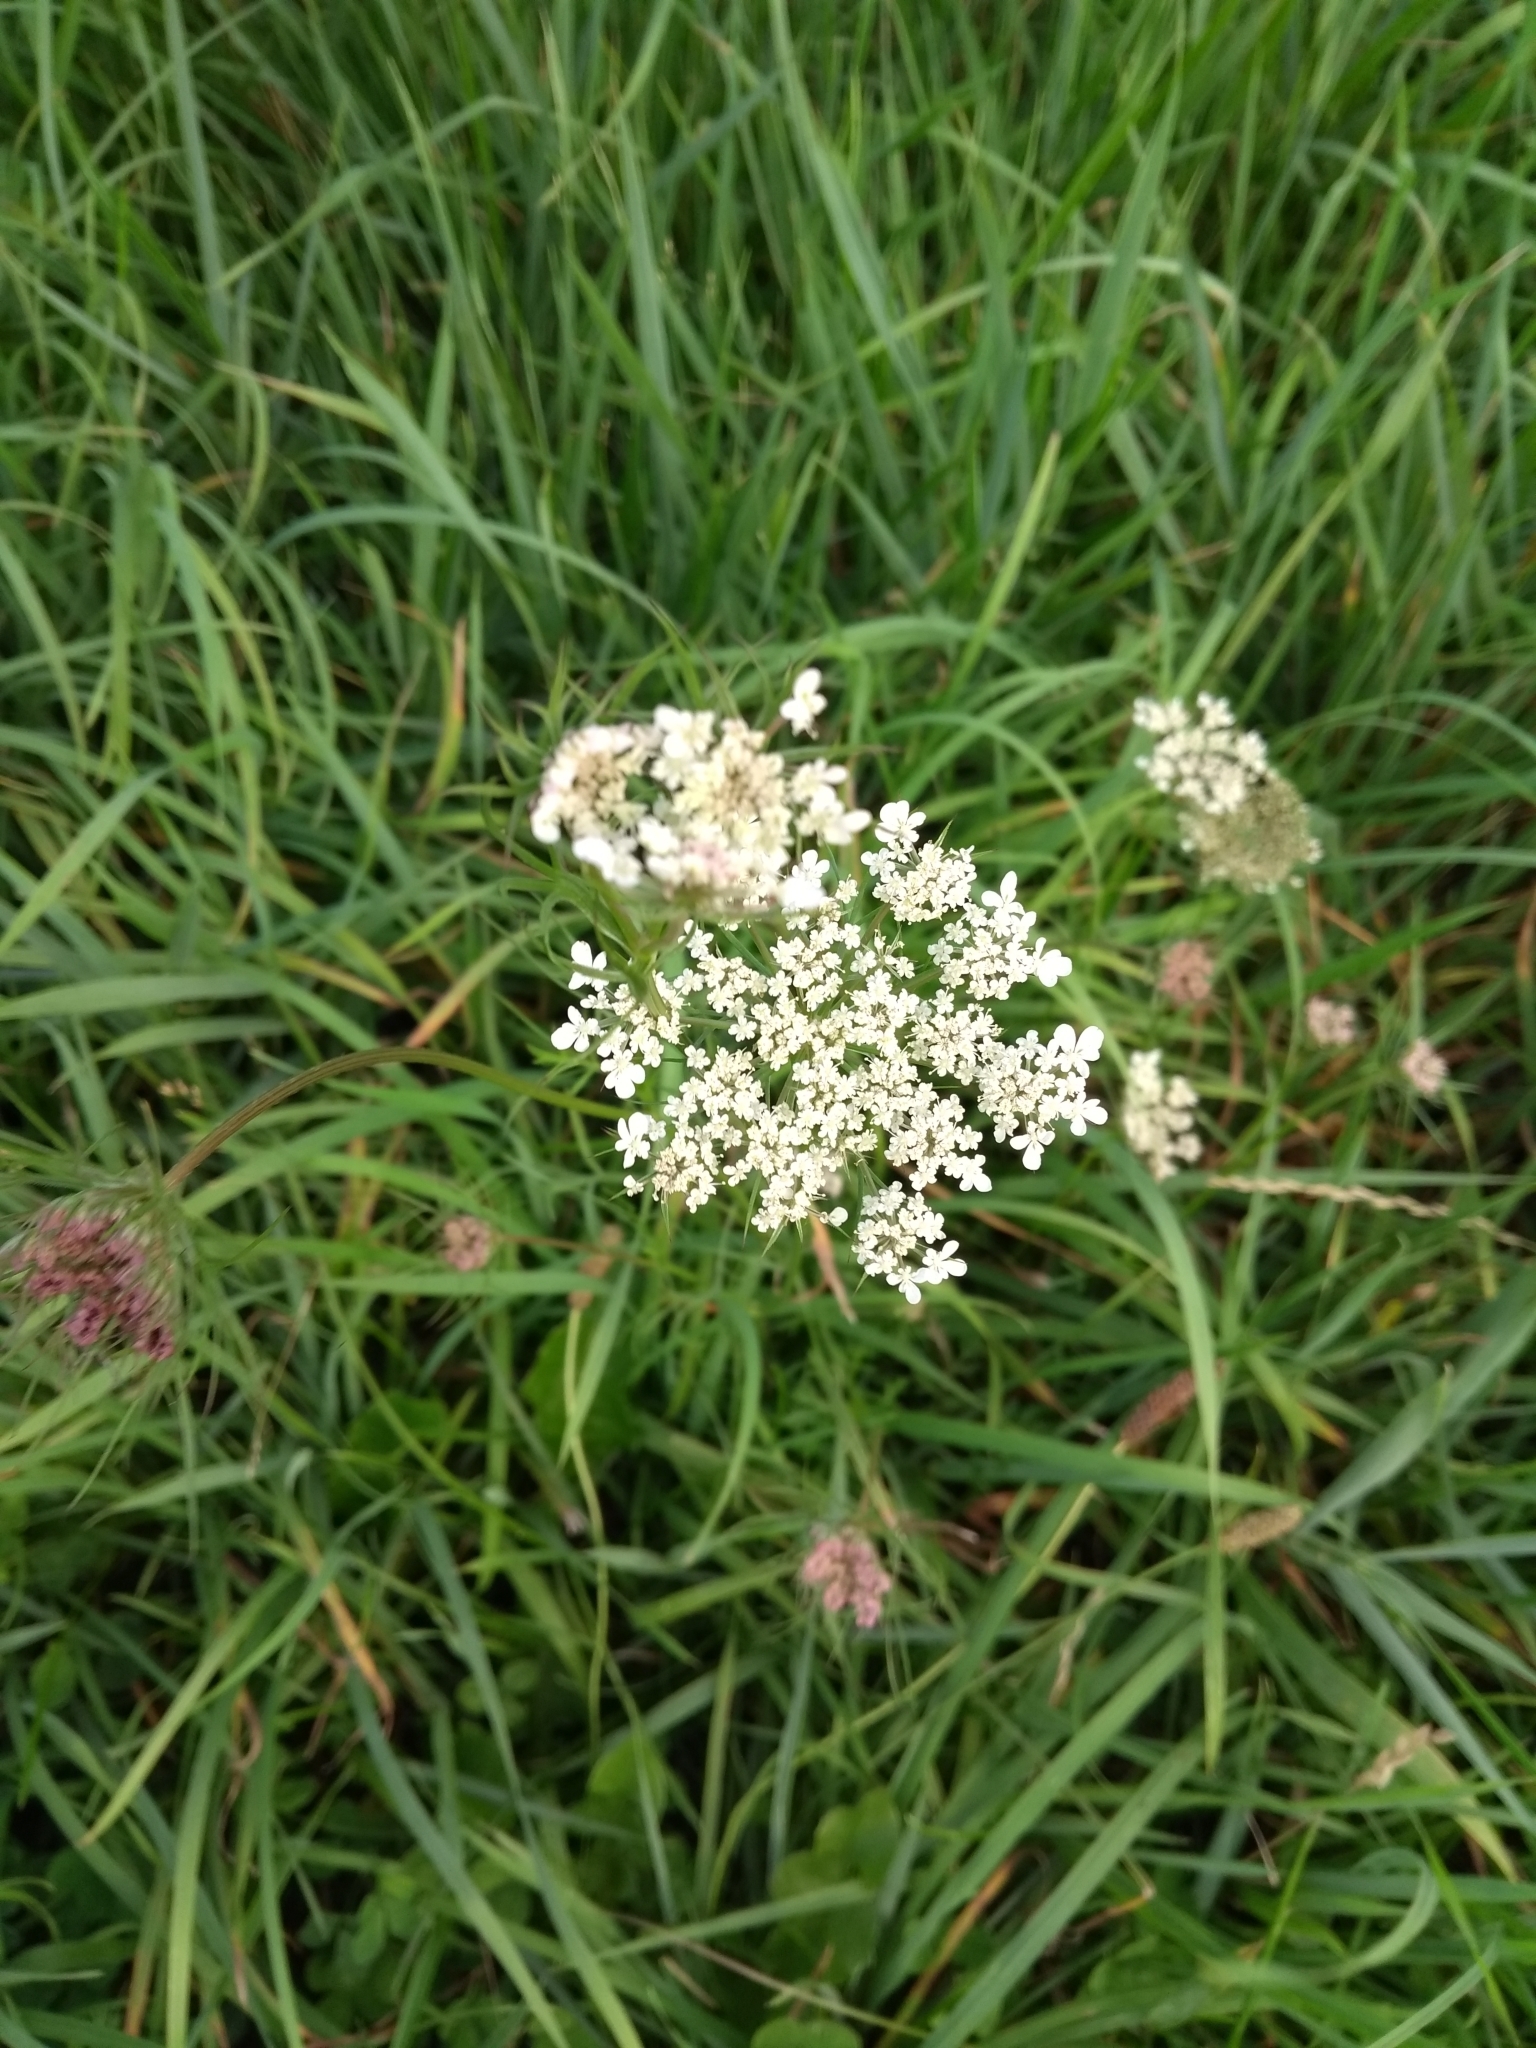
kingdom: Plantae
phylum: Tracheophyta
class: Magnoliopsida
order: Apiales
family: Apiaceae
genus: Daucus
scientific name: Daucus carota
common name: Wild carrot
